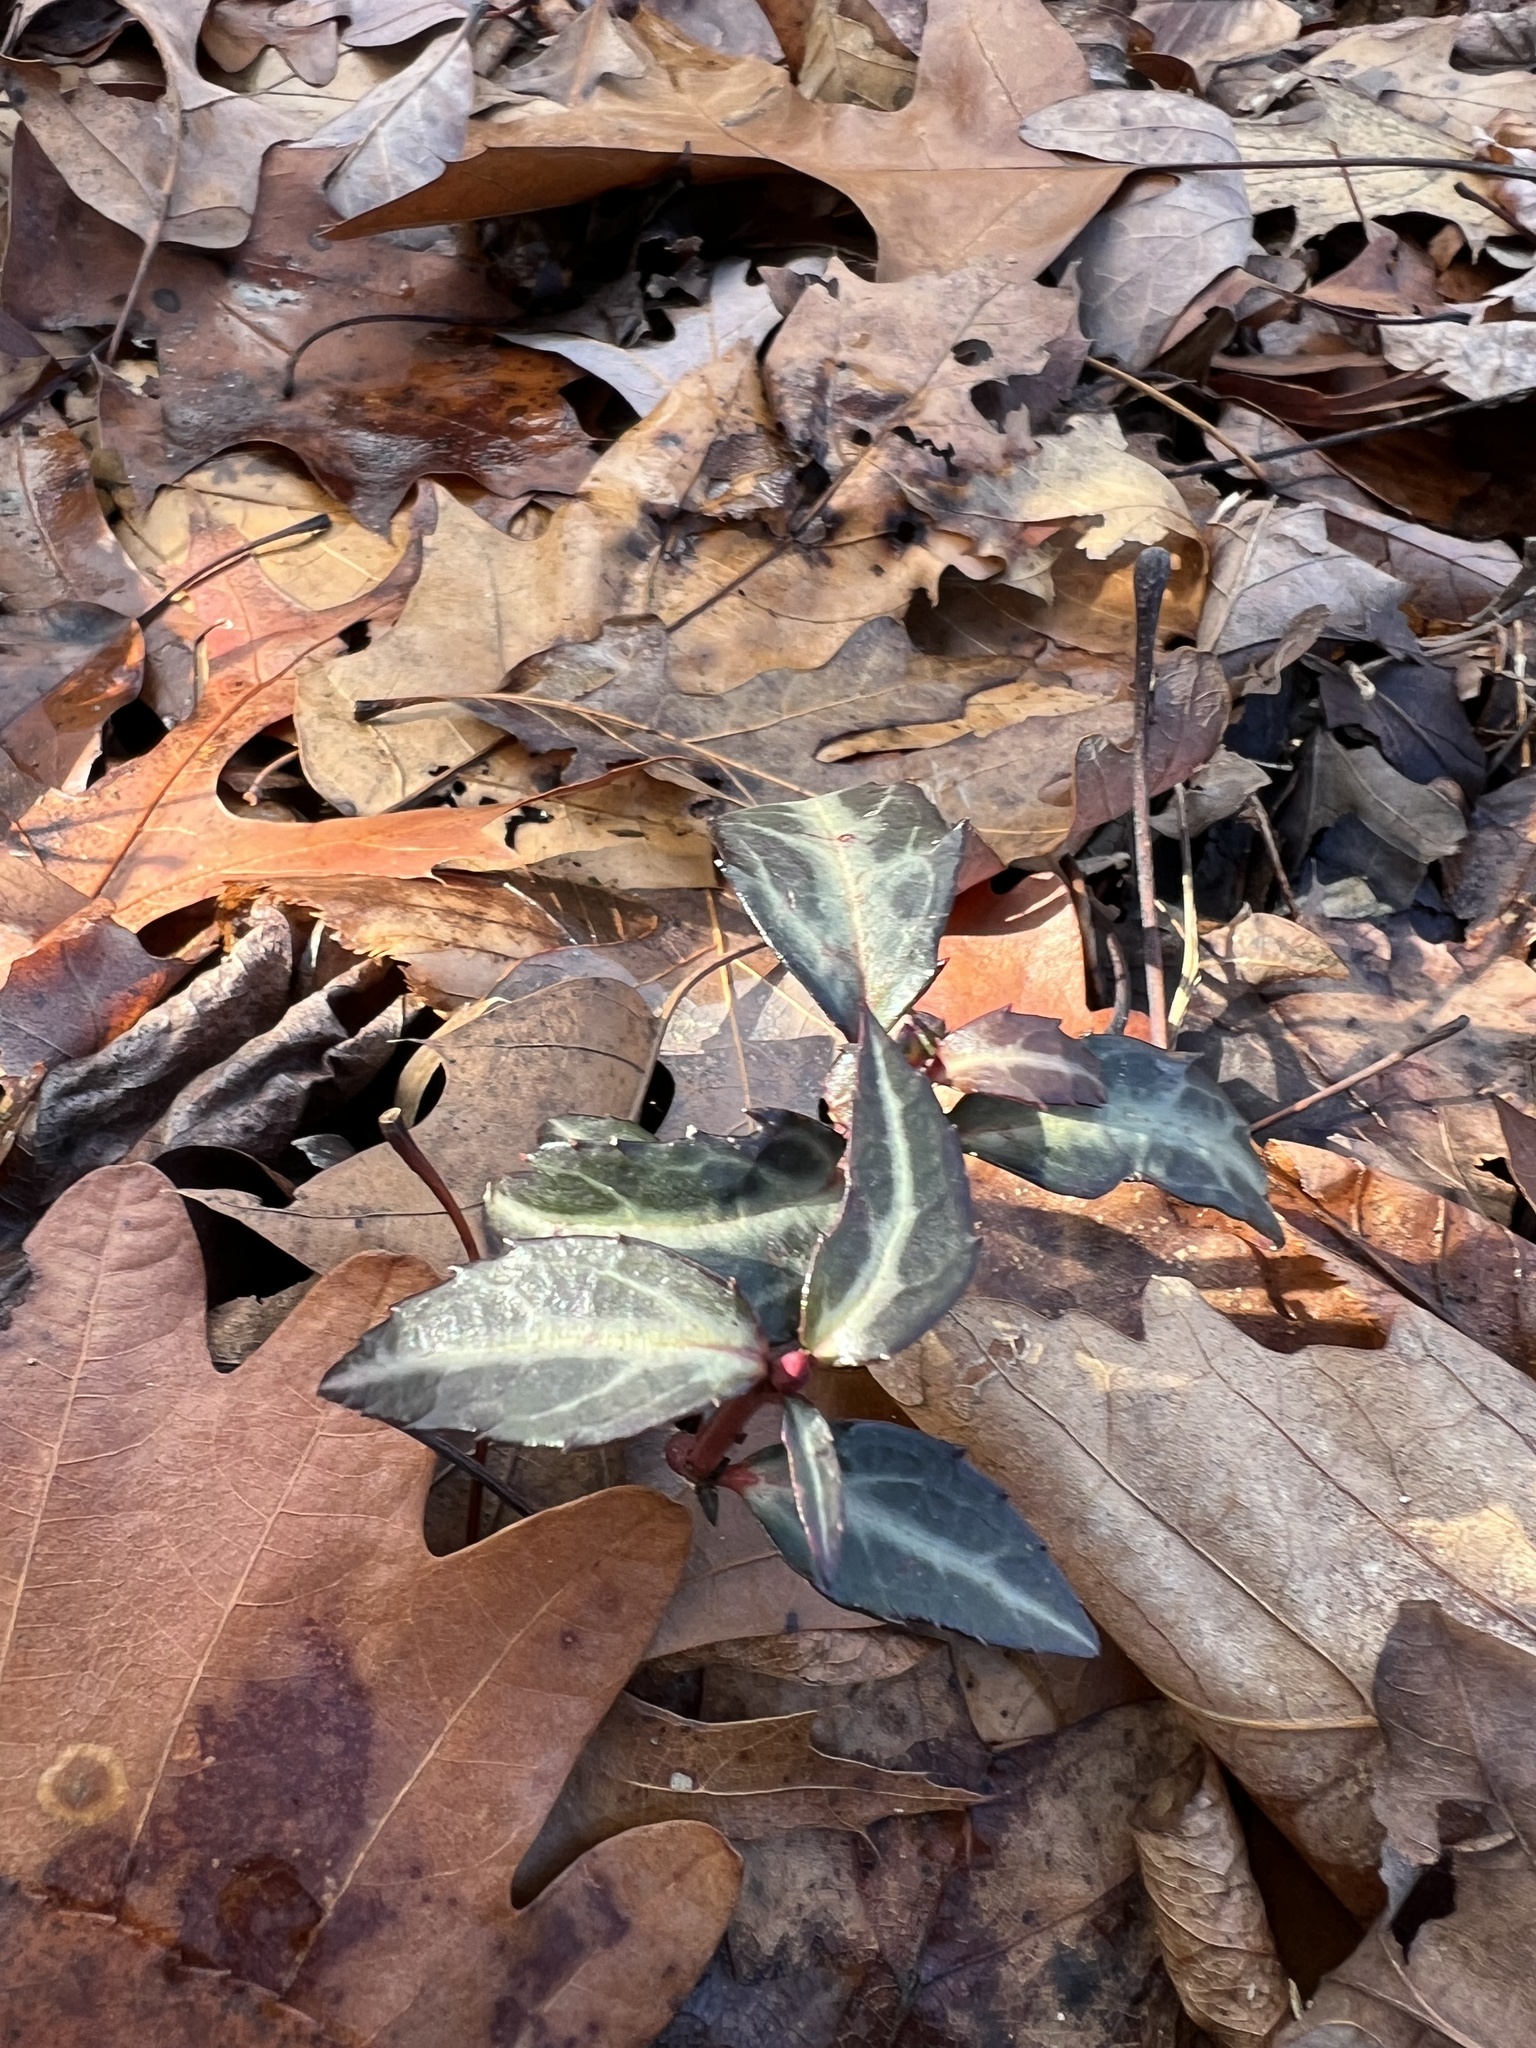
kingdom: Plantae
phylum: Tracheophyta
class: Magnoliopsida
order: Ericales
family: Ericaceae
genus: Chimaphila
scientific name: Chimaphila maculata
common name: Spotted pipsissewa
